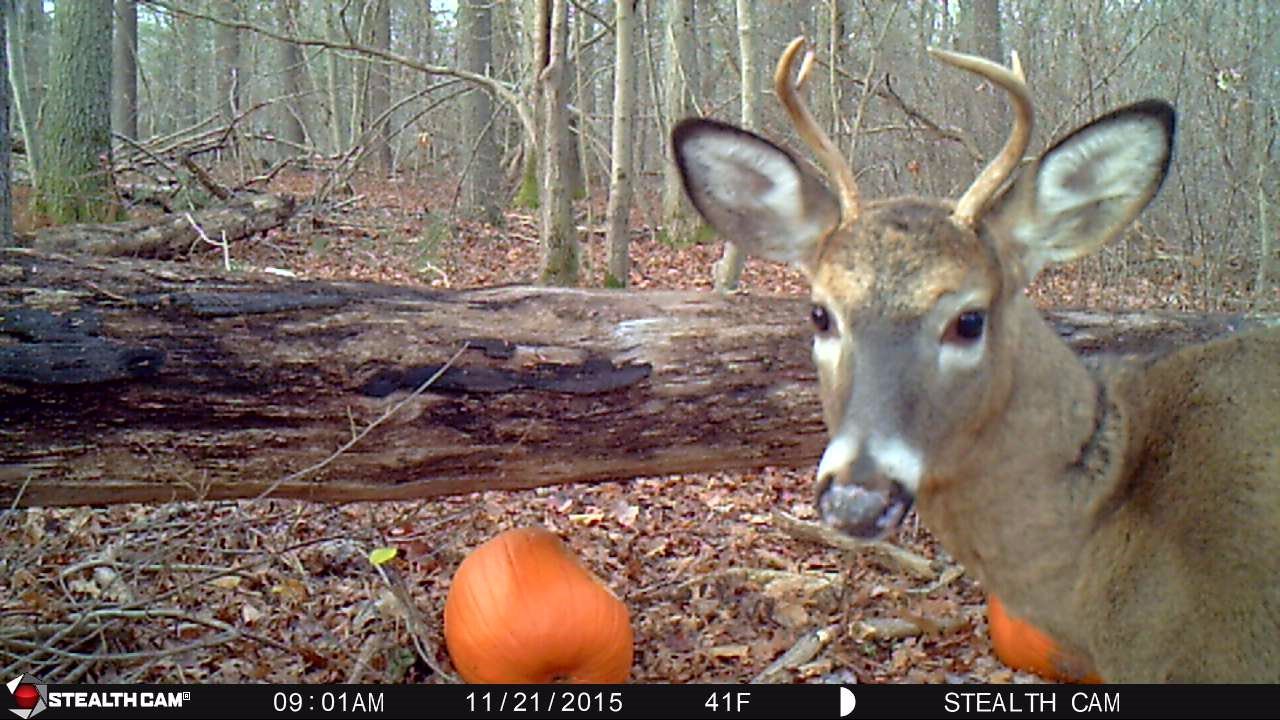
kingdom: Animalia
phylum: Chordata
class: Mammalia
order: Artiodactyla
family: Cervidae
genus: Odocoileus
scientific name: Odocoileus virginianus
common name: White-tailed deer
